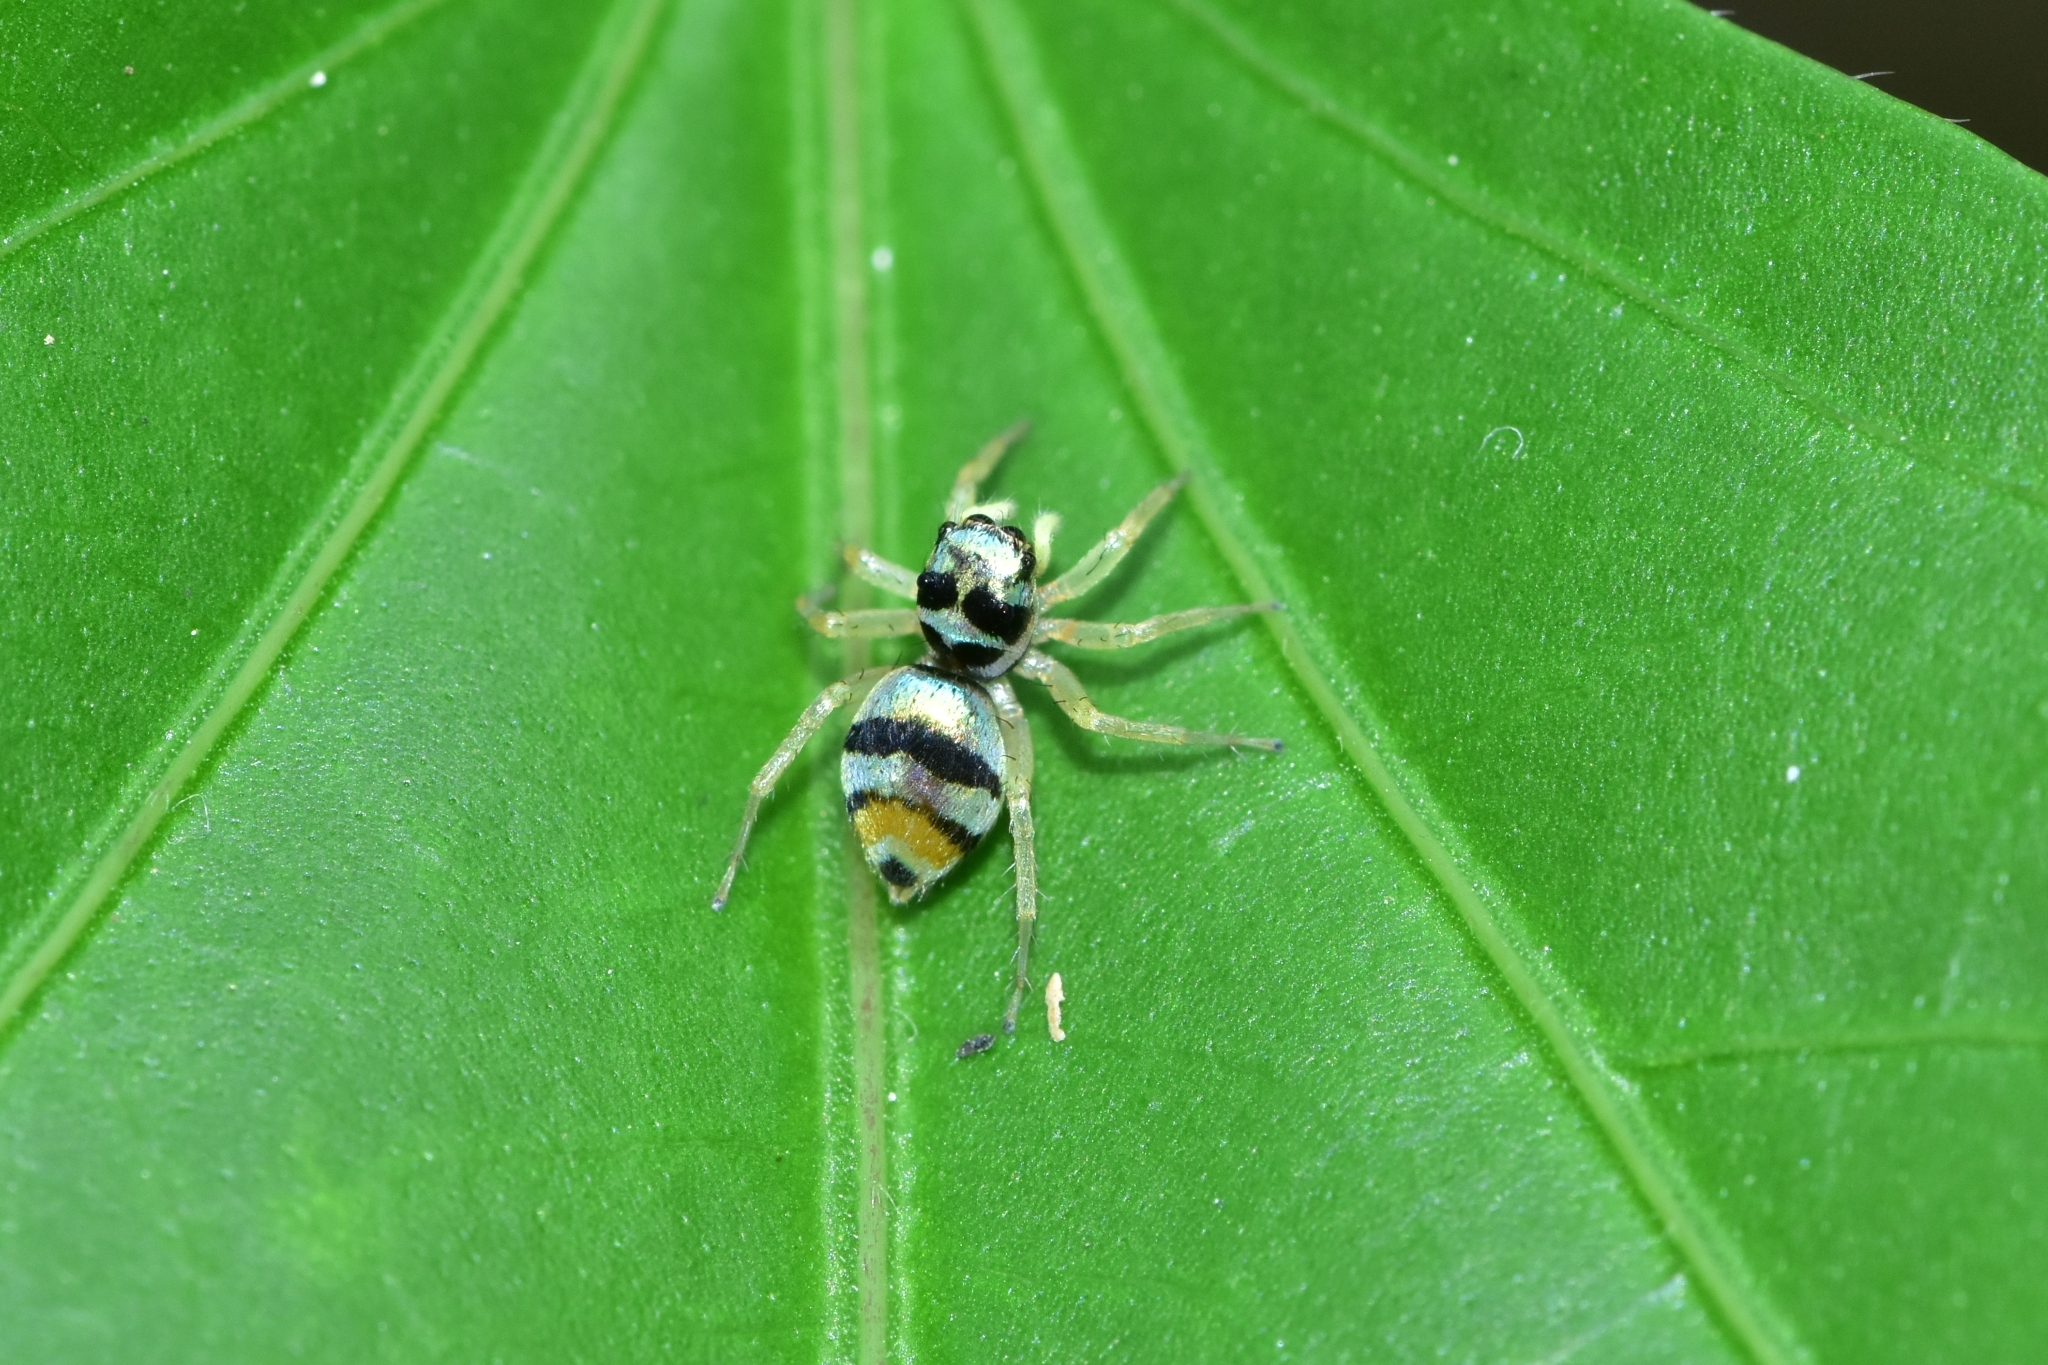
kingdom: Animalia
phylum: Arthropoda
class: Arachnida
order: Araneae
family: Salticidae
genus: Phintella
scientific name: Phintella vittata
